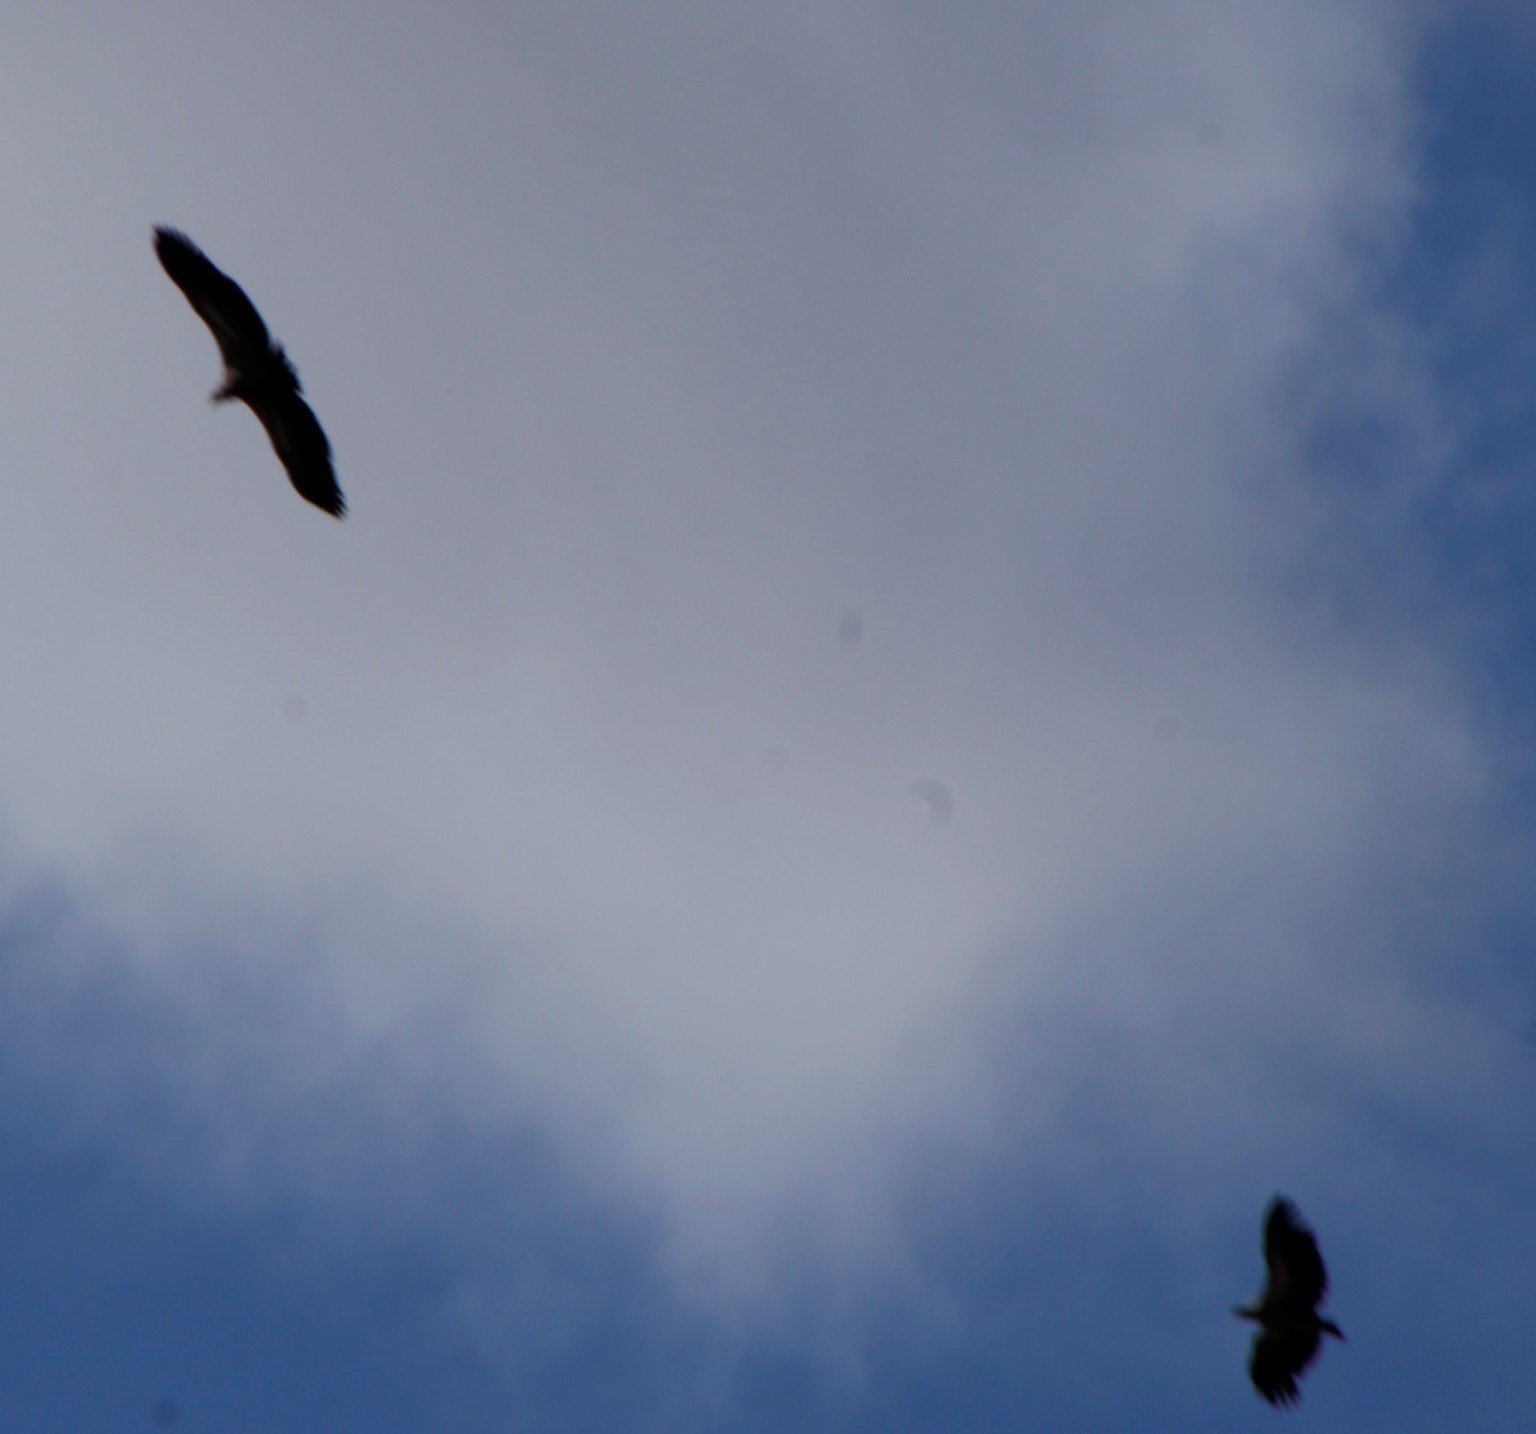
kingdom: Animalia
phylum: Chordata
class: Aves
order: Accipitriformes
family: Accipitridae
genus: Gyps
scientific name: Gyps africanus
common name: White-backed vulture
